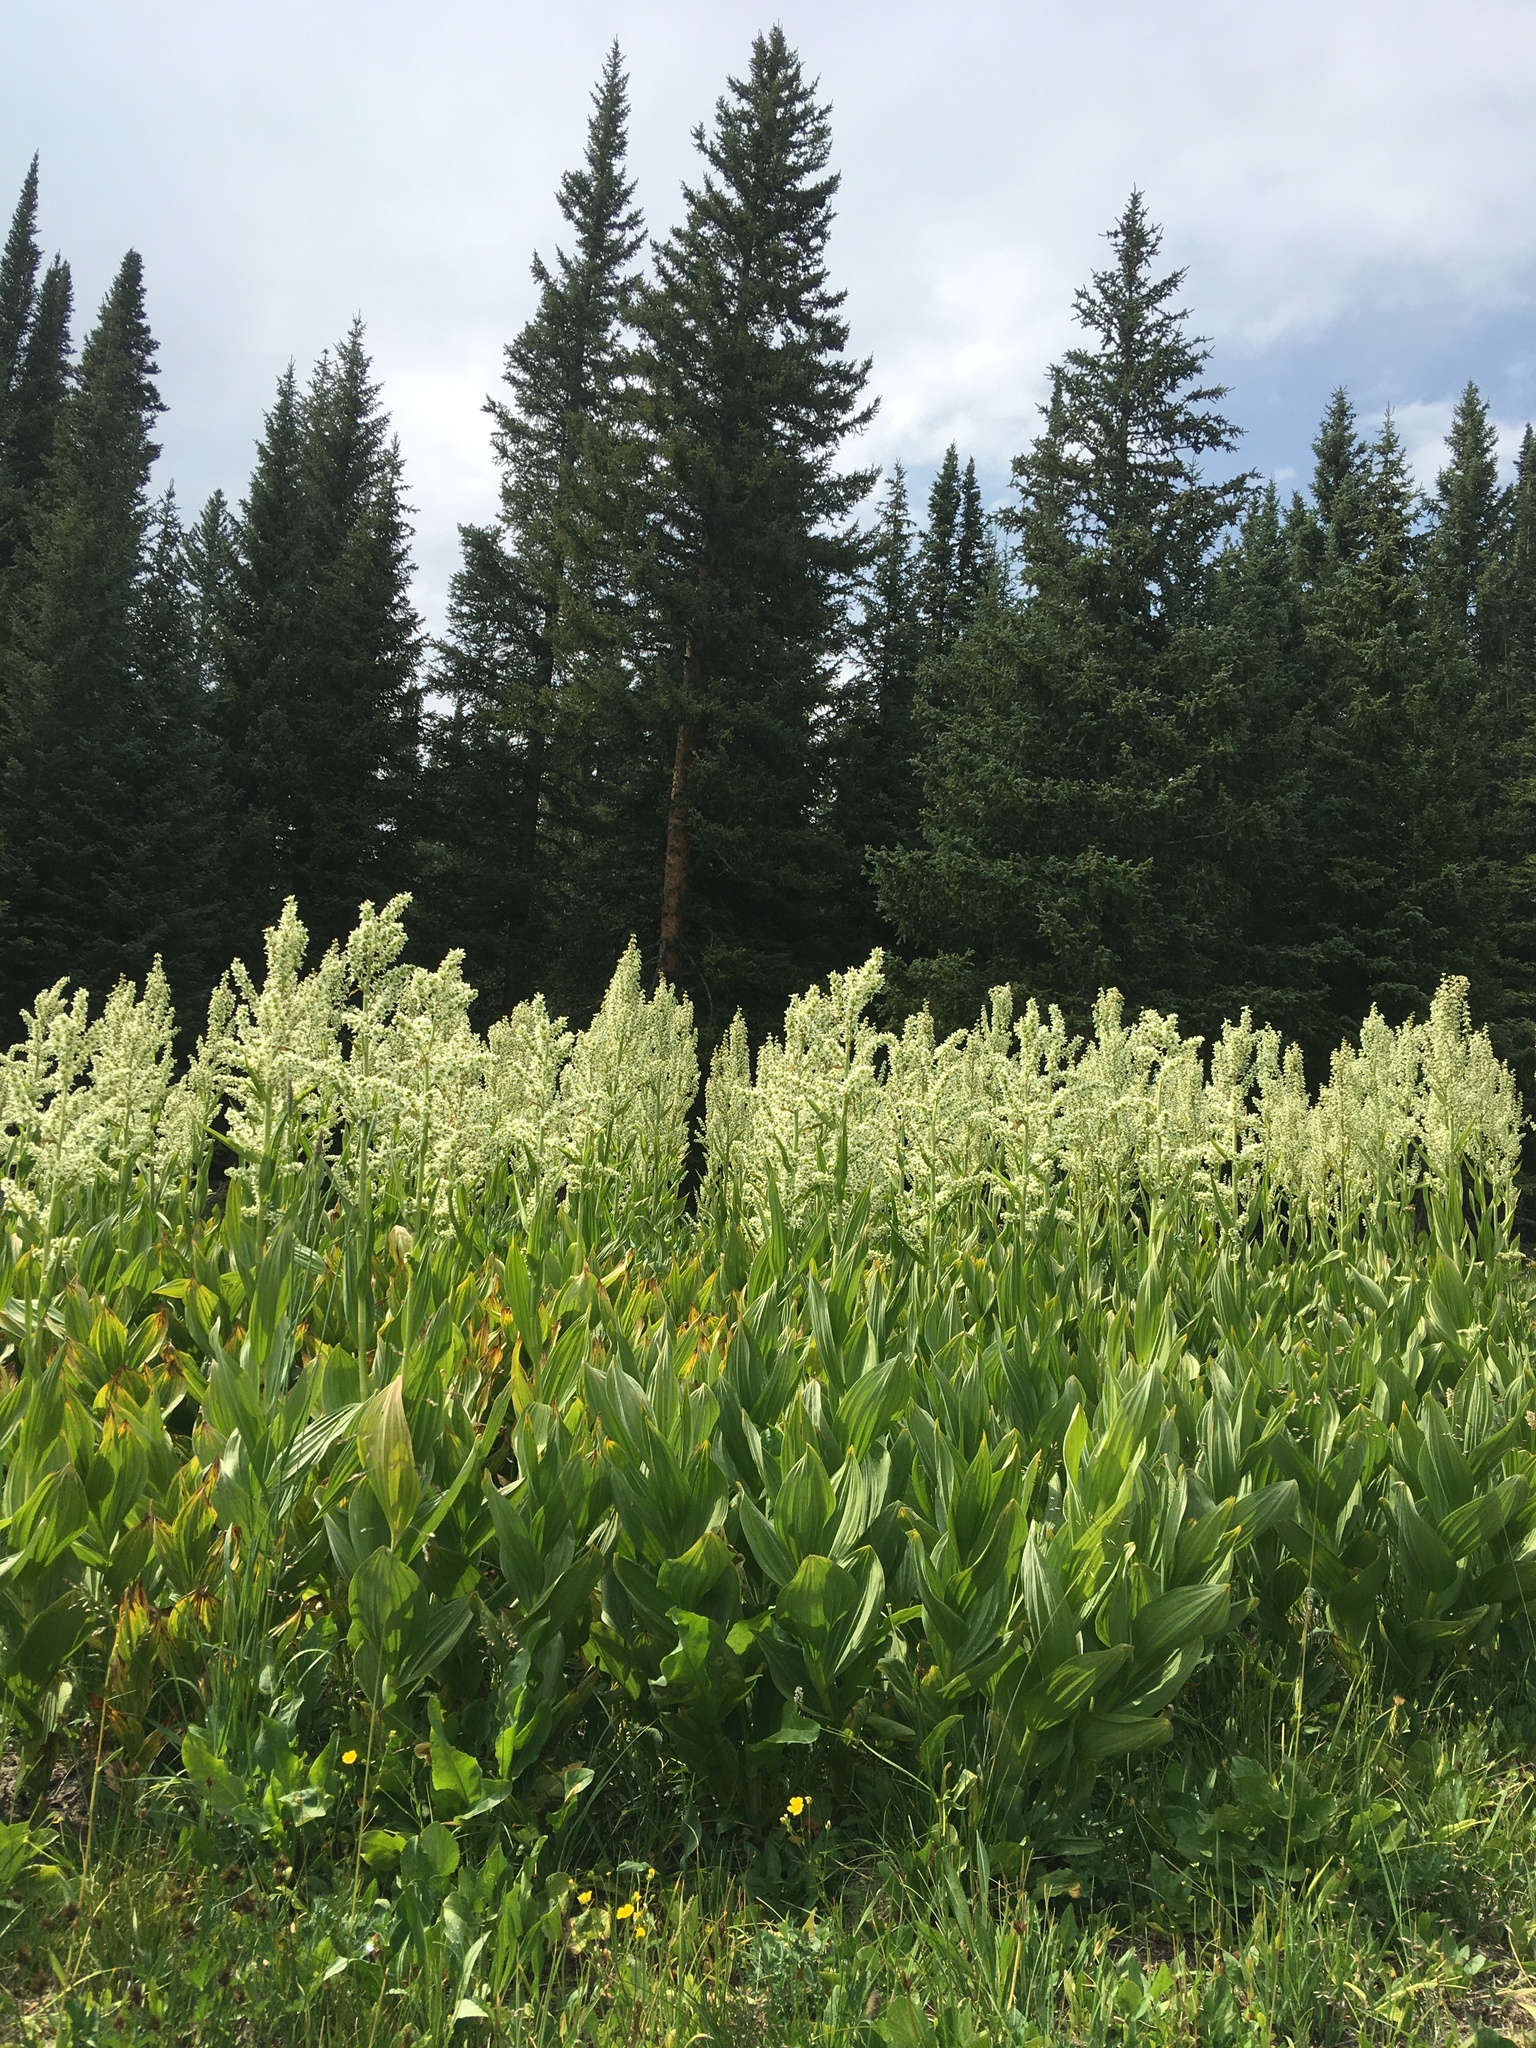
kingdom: Plantae
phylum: Tracheophyta
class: Liliopsida
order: Liliales
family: Melanthiaceae
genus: Veratrum
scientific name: Veratrum californicum
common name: California veratrum
